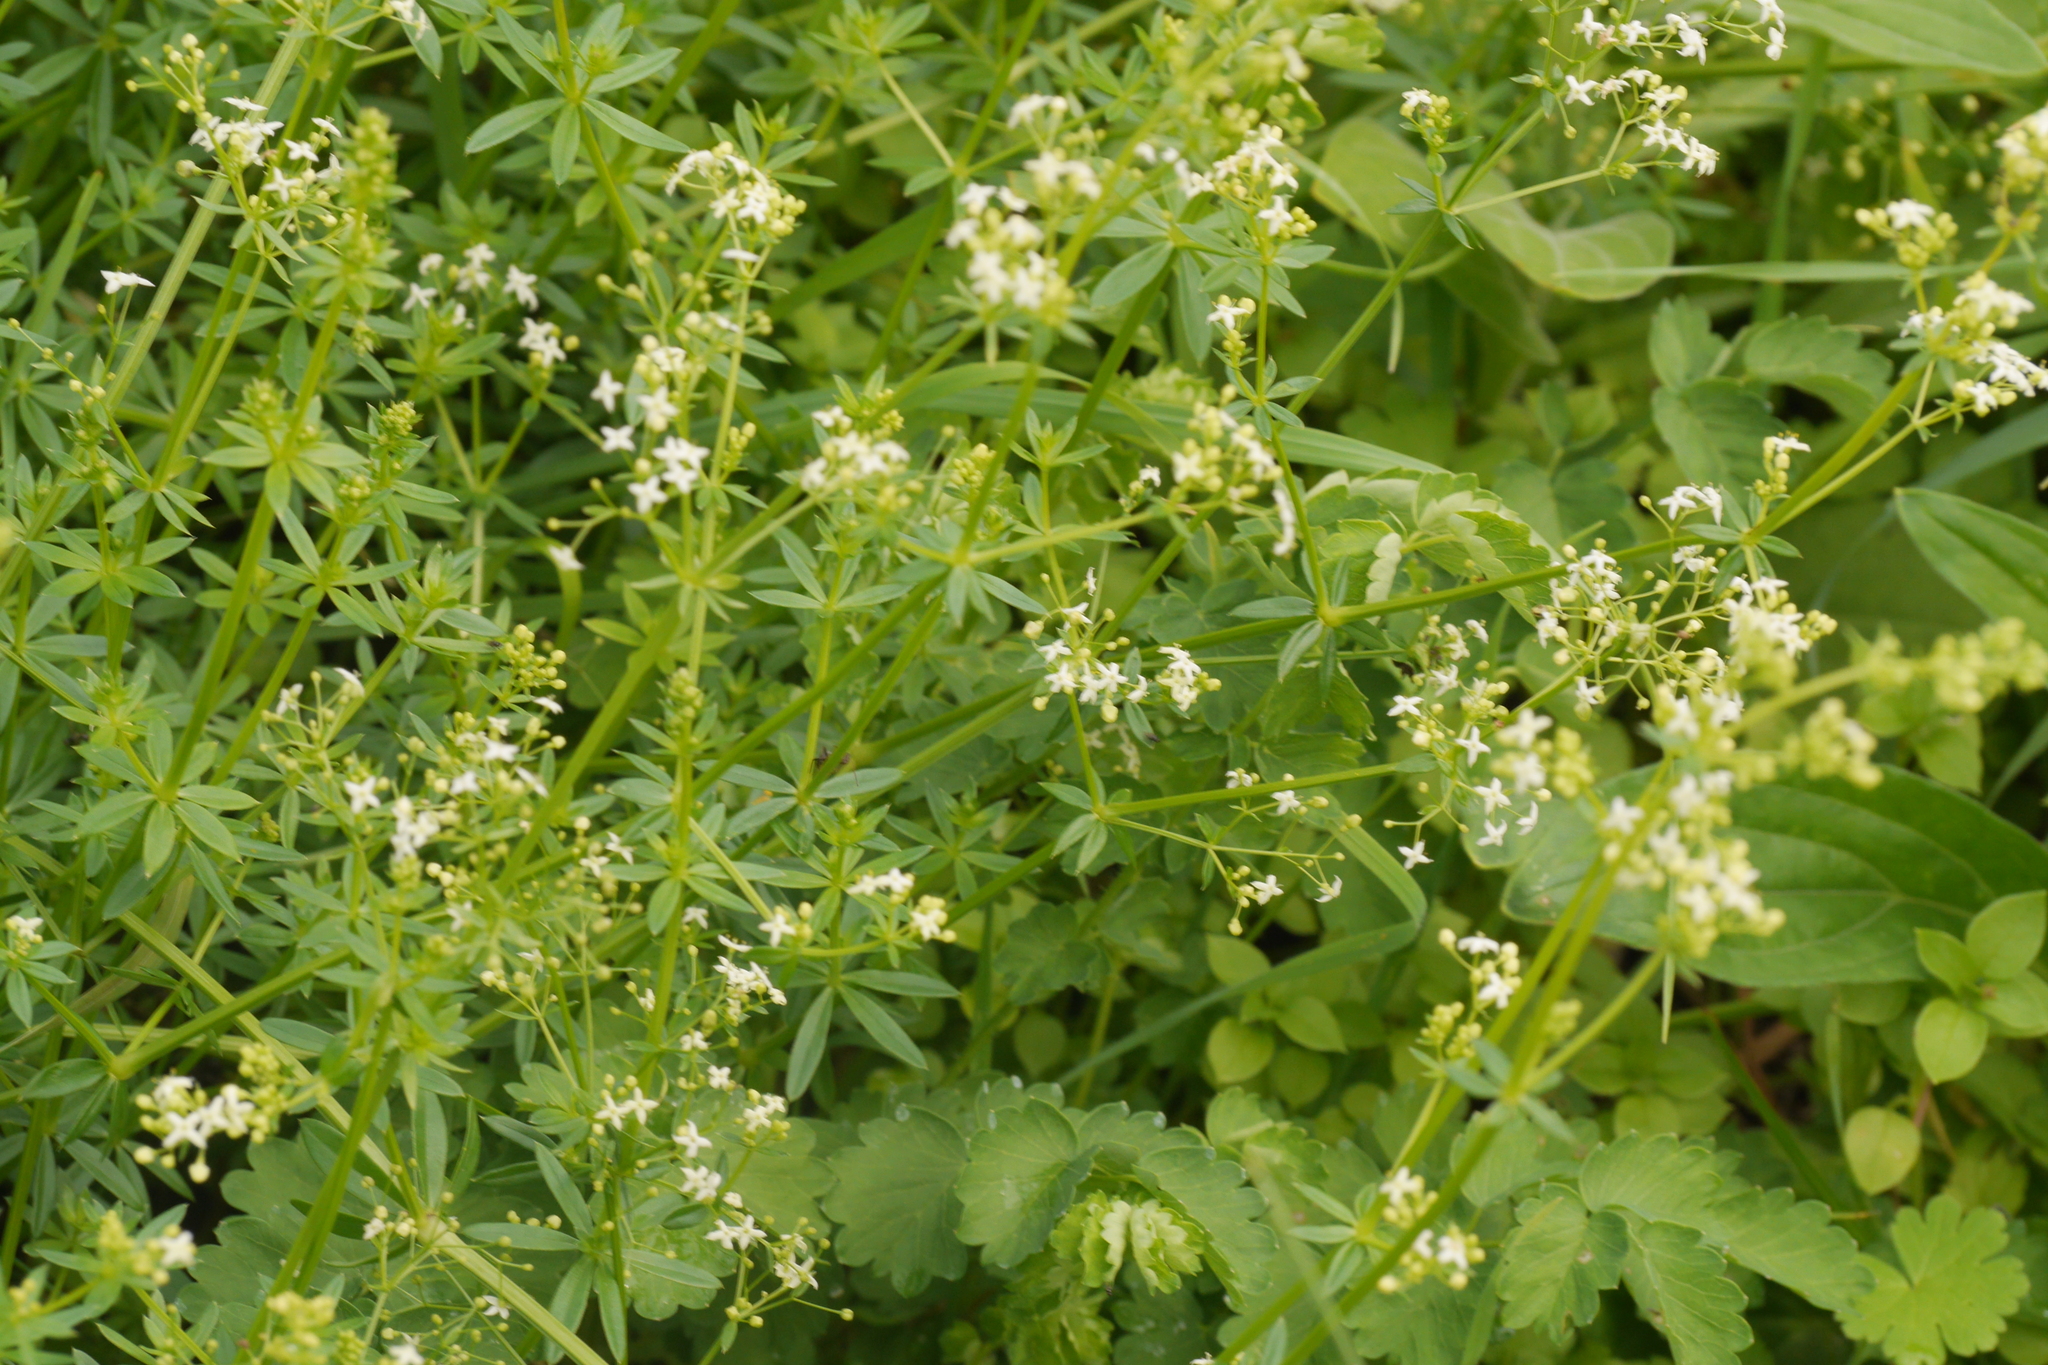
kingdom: Plantae
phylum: Tracheophyta
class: Magnoliopsida
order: Gentianales
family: Rubiaceae
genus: Galium
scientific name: Galium album
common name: White bedstraw
